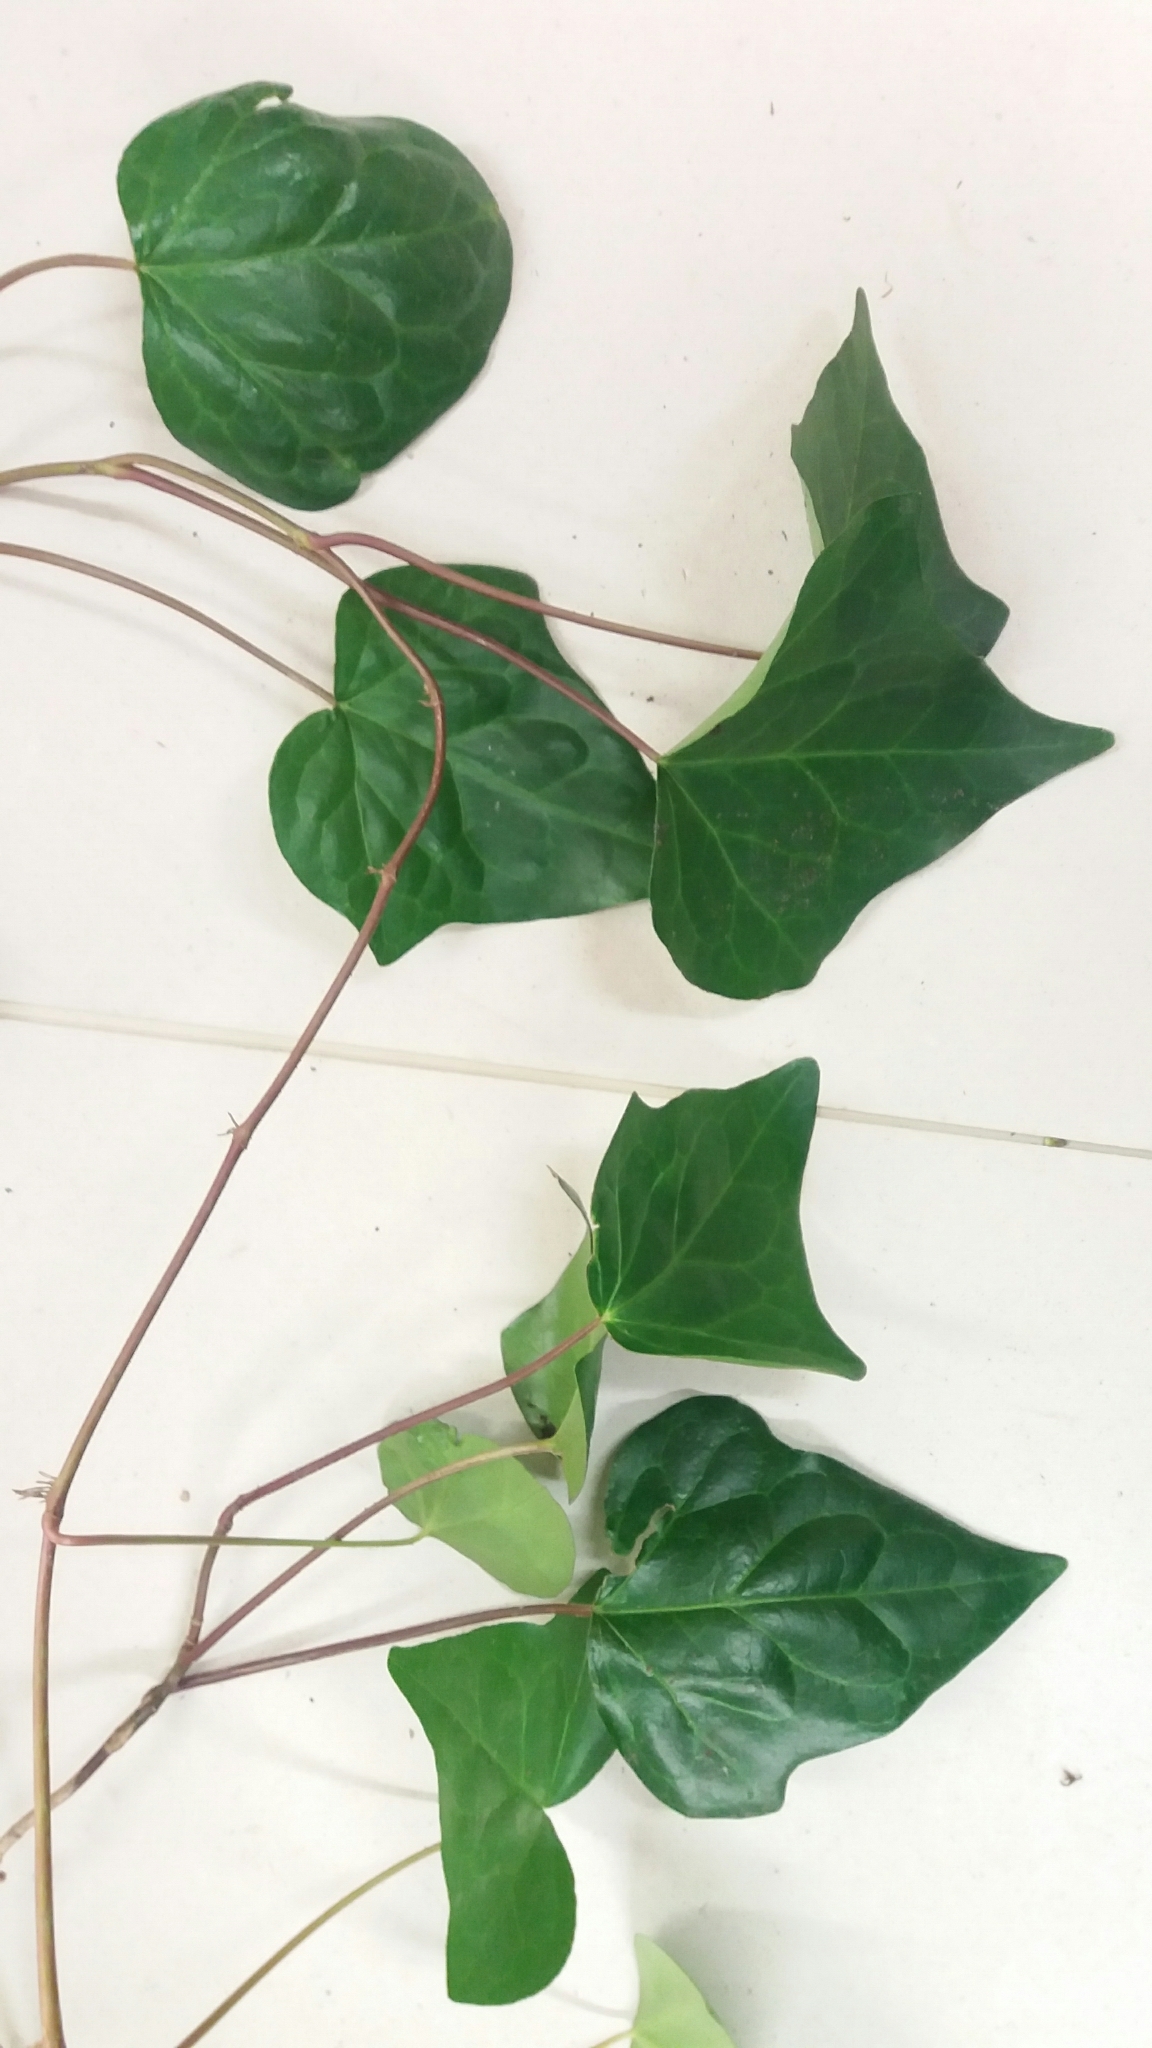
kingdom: Plantae
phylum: Tracheophyta
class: Magnoliopsida
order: Apiales
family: Araliaceae
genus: Hedera
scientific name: Hedera helix
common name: Ivy
